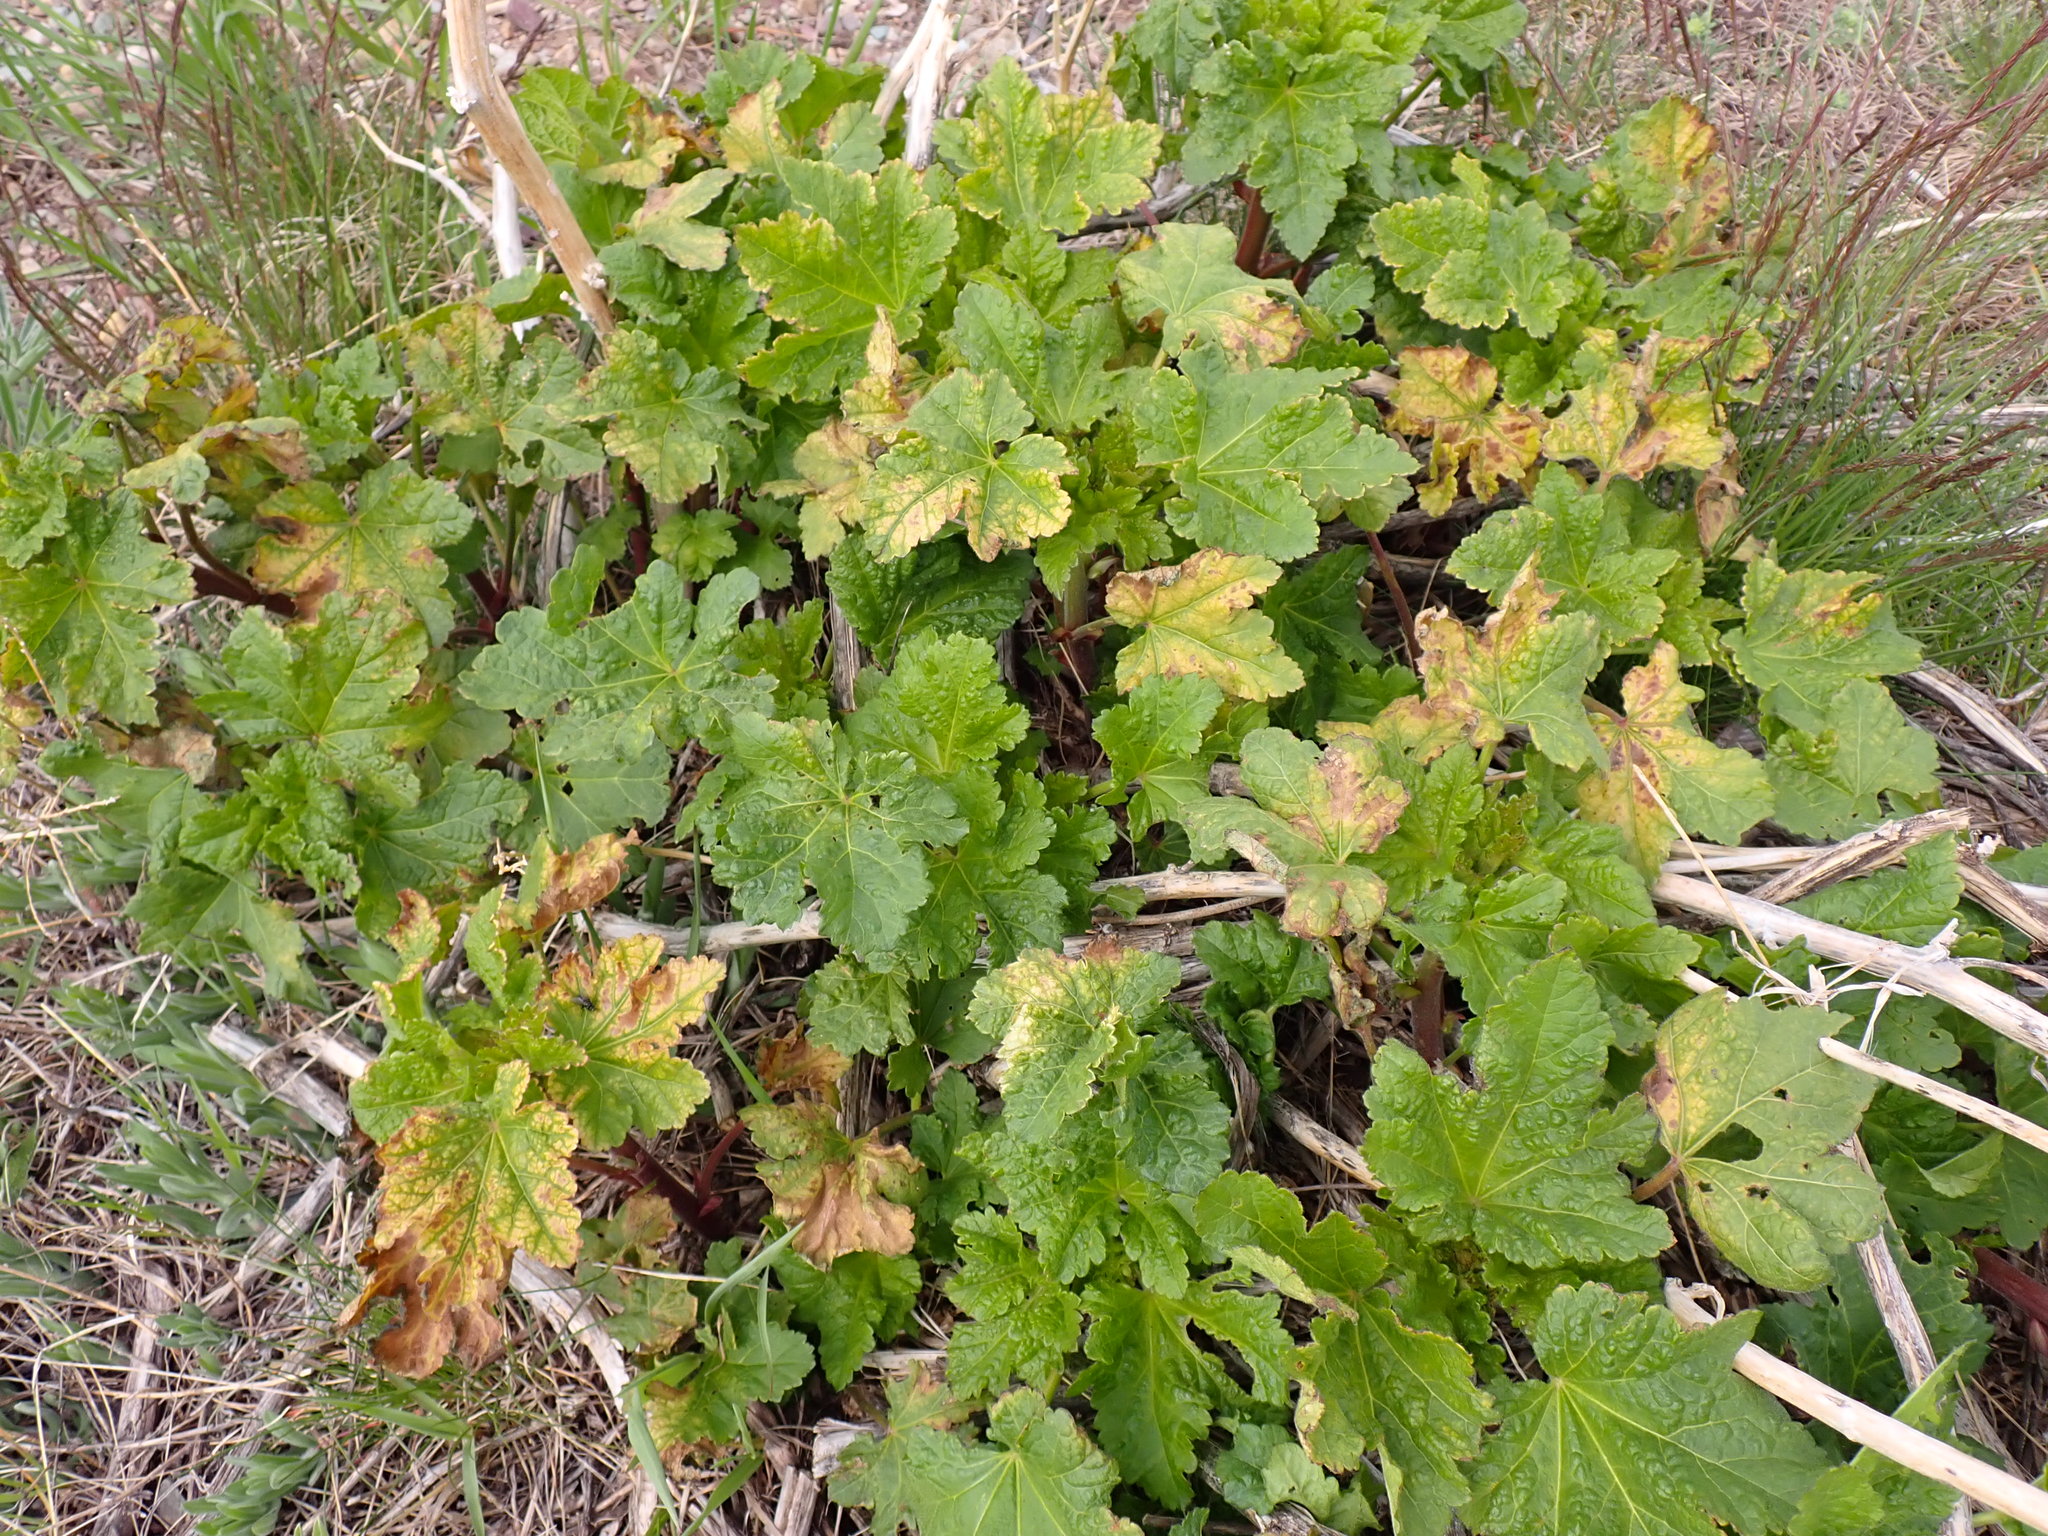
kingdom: Plantae
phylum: Tracheophyta
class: Magnoliopsida
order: Malvales
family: Malvaceae
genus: Iliamna
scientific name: Iliamna rivularis
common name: Wild hollyhock
